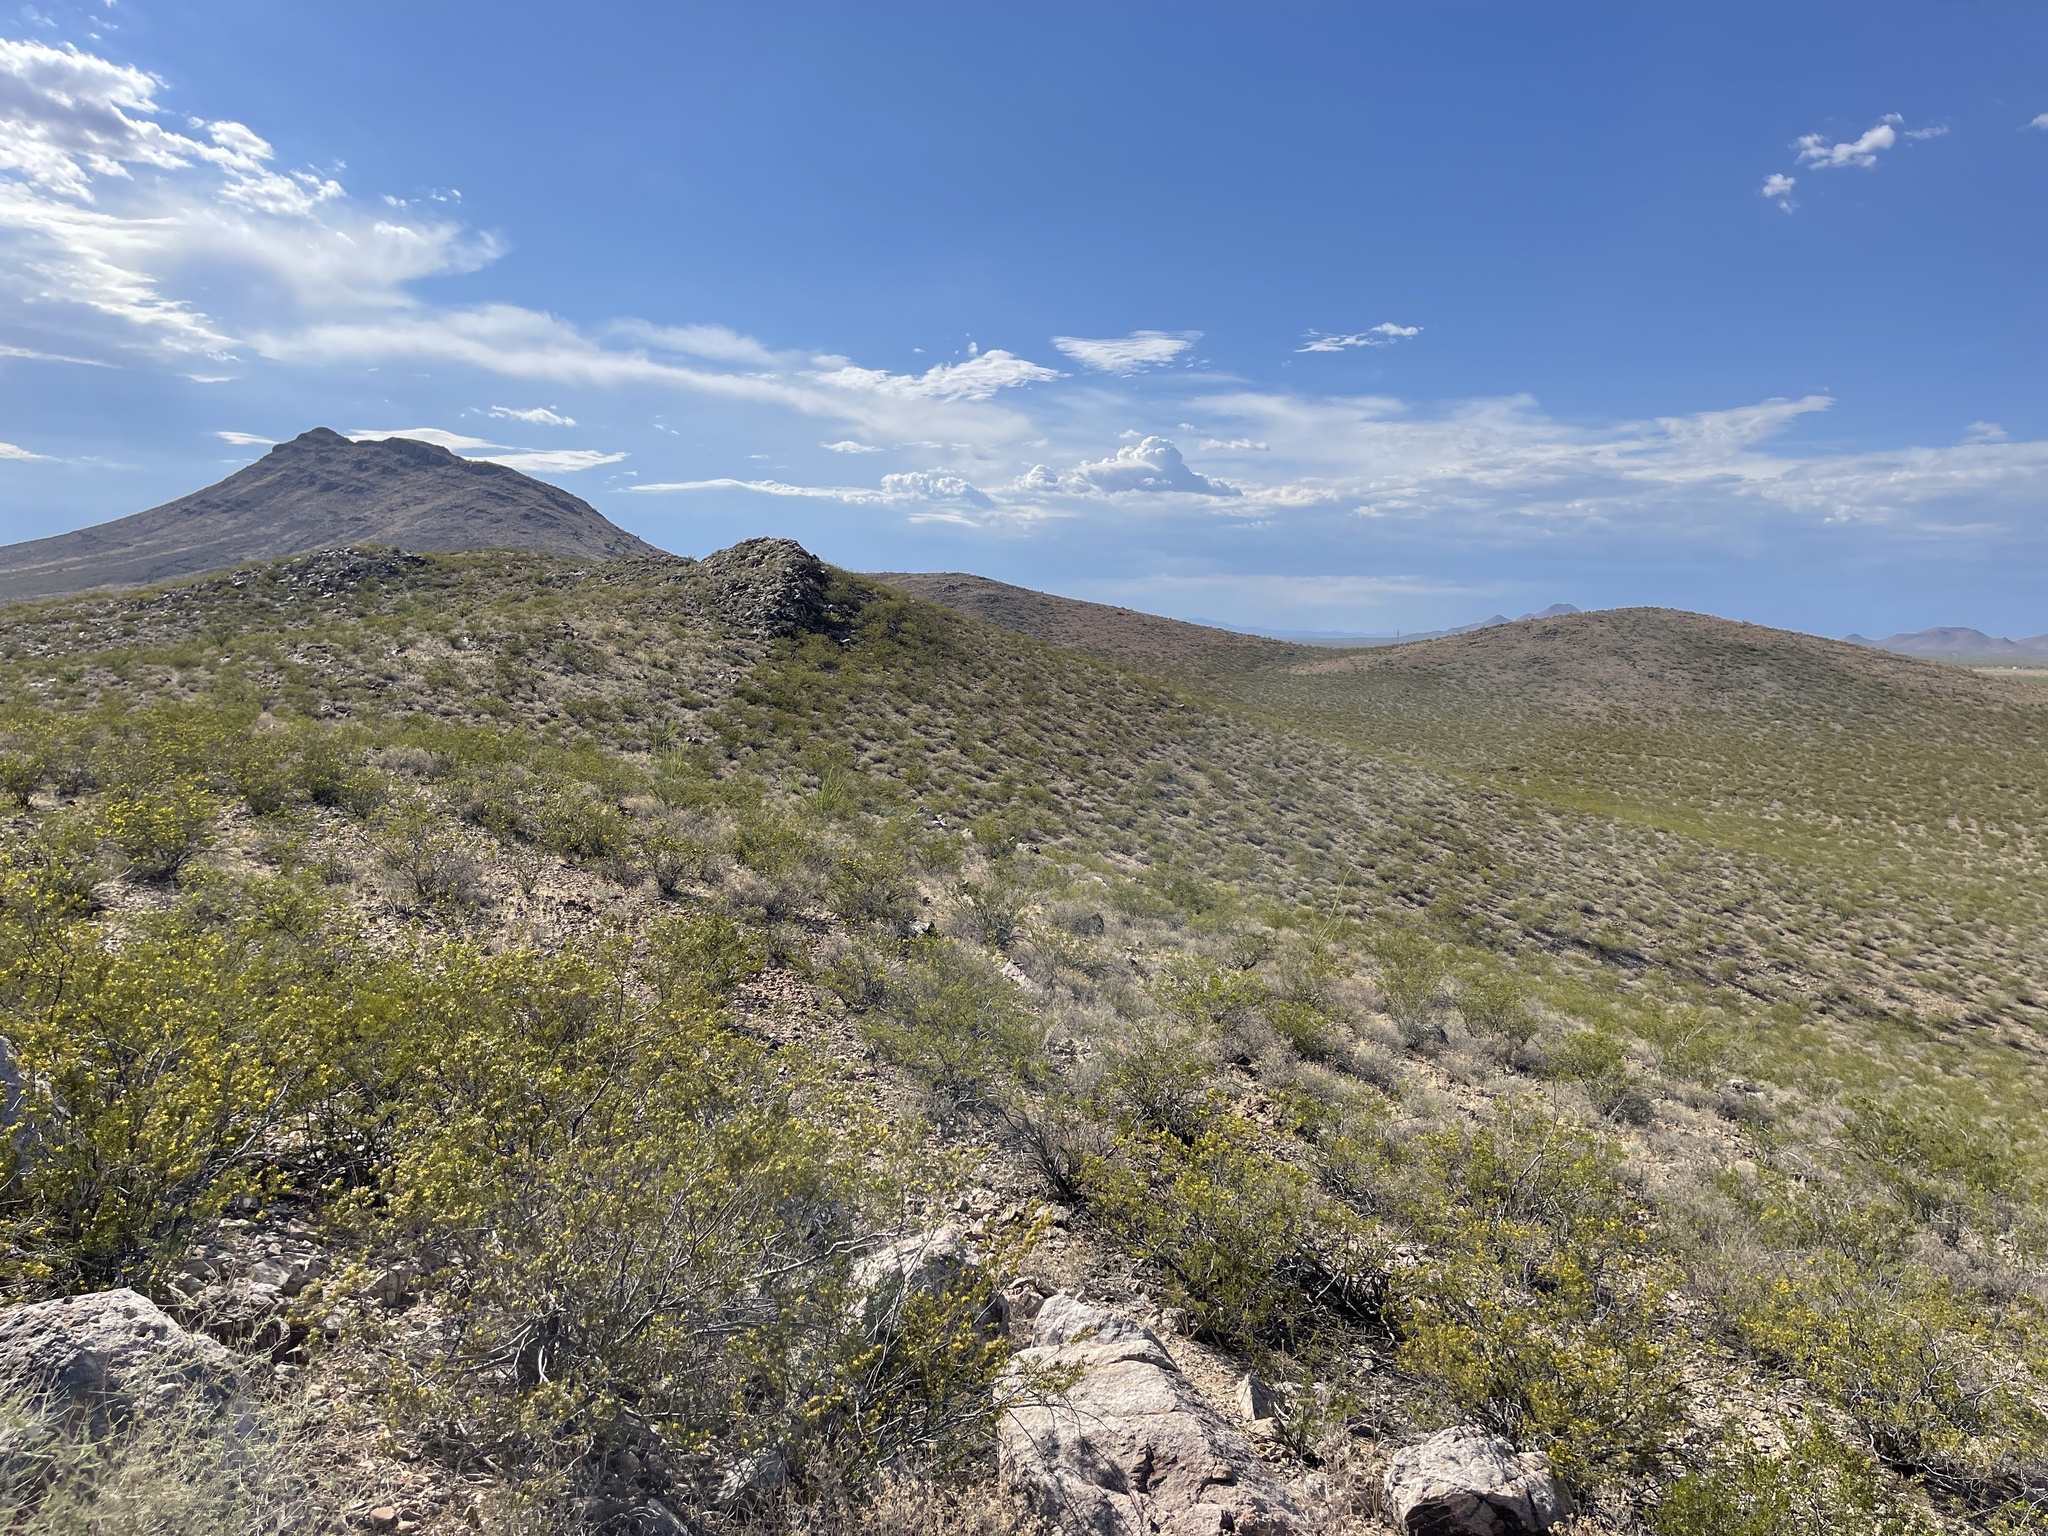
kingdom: Plantae
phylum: Tracheophyta
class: Magnoliopsida
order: Zygophyllales
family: Zygophyllaceae
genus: Larrea
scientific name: Larrea tridentata
